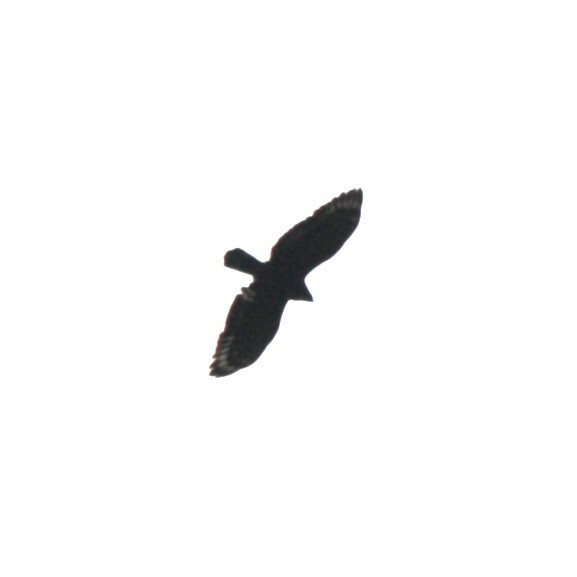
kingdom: Animalia
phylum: Chordata
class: Aves
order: Accipitriformes
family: Accipitridae
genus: Spilornis
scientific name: Spilornis cheela
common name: Crested serpent eagle
